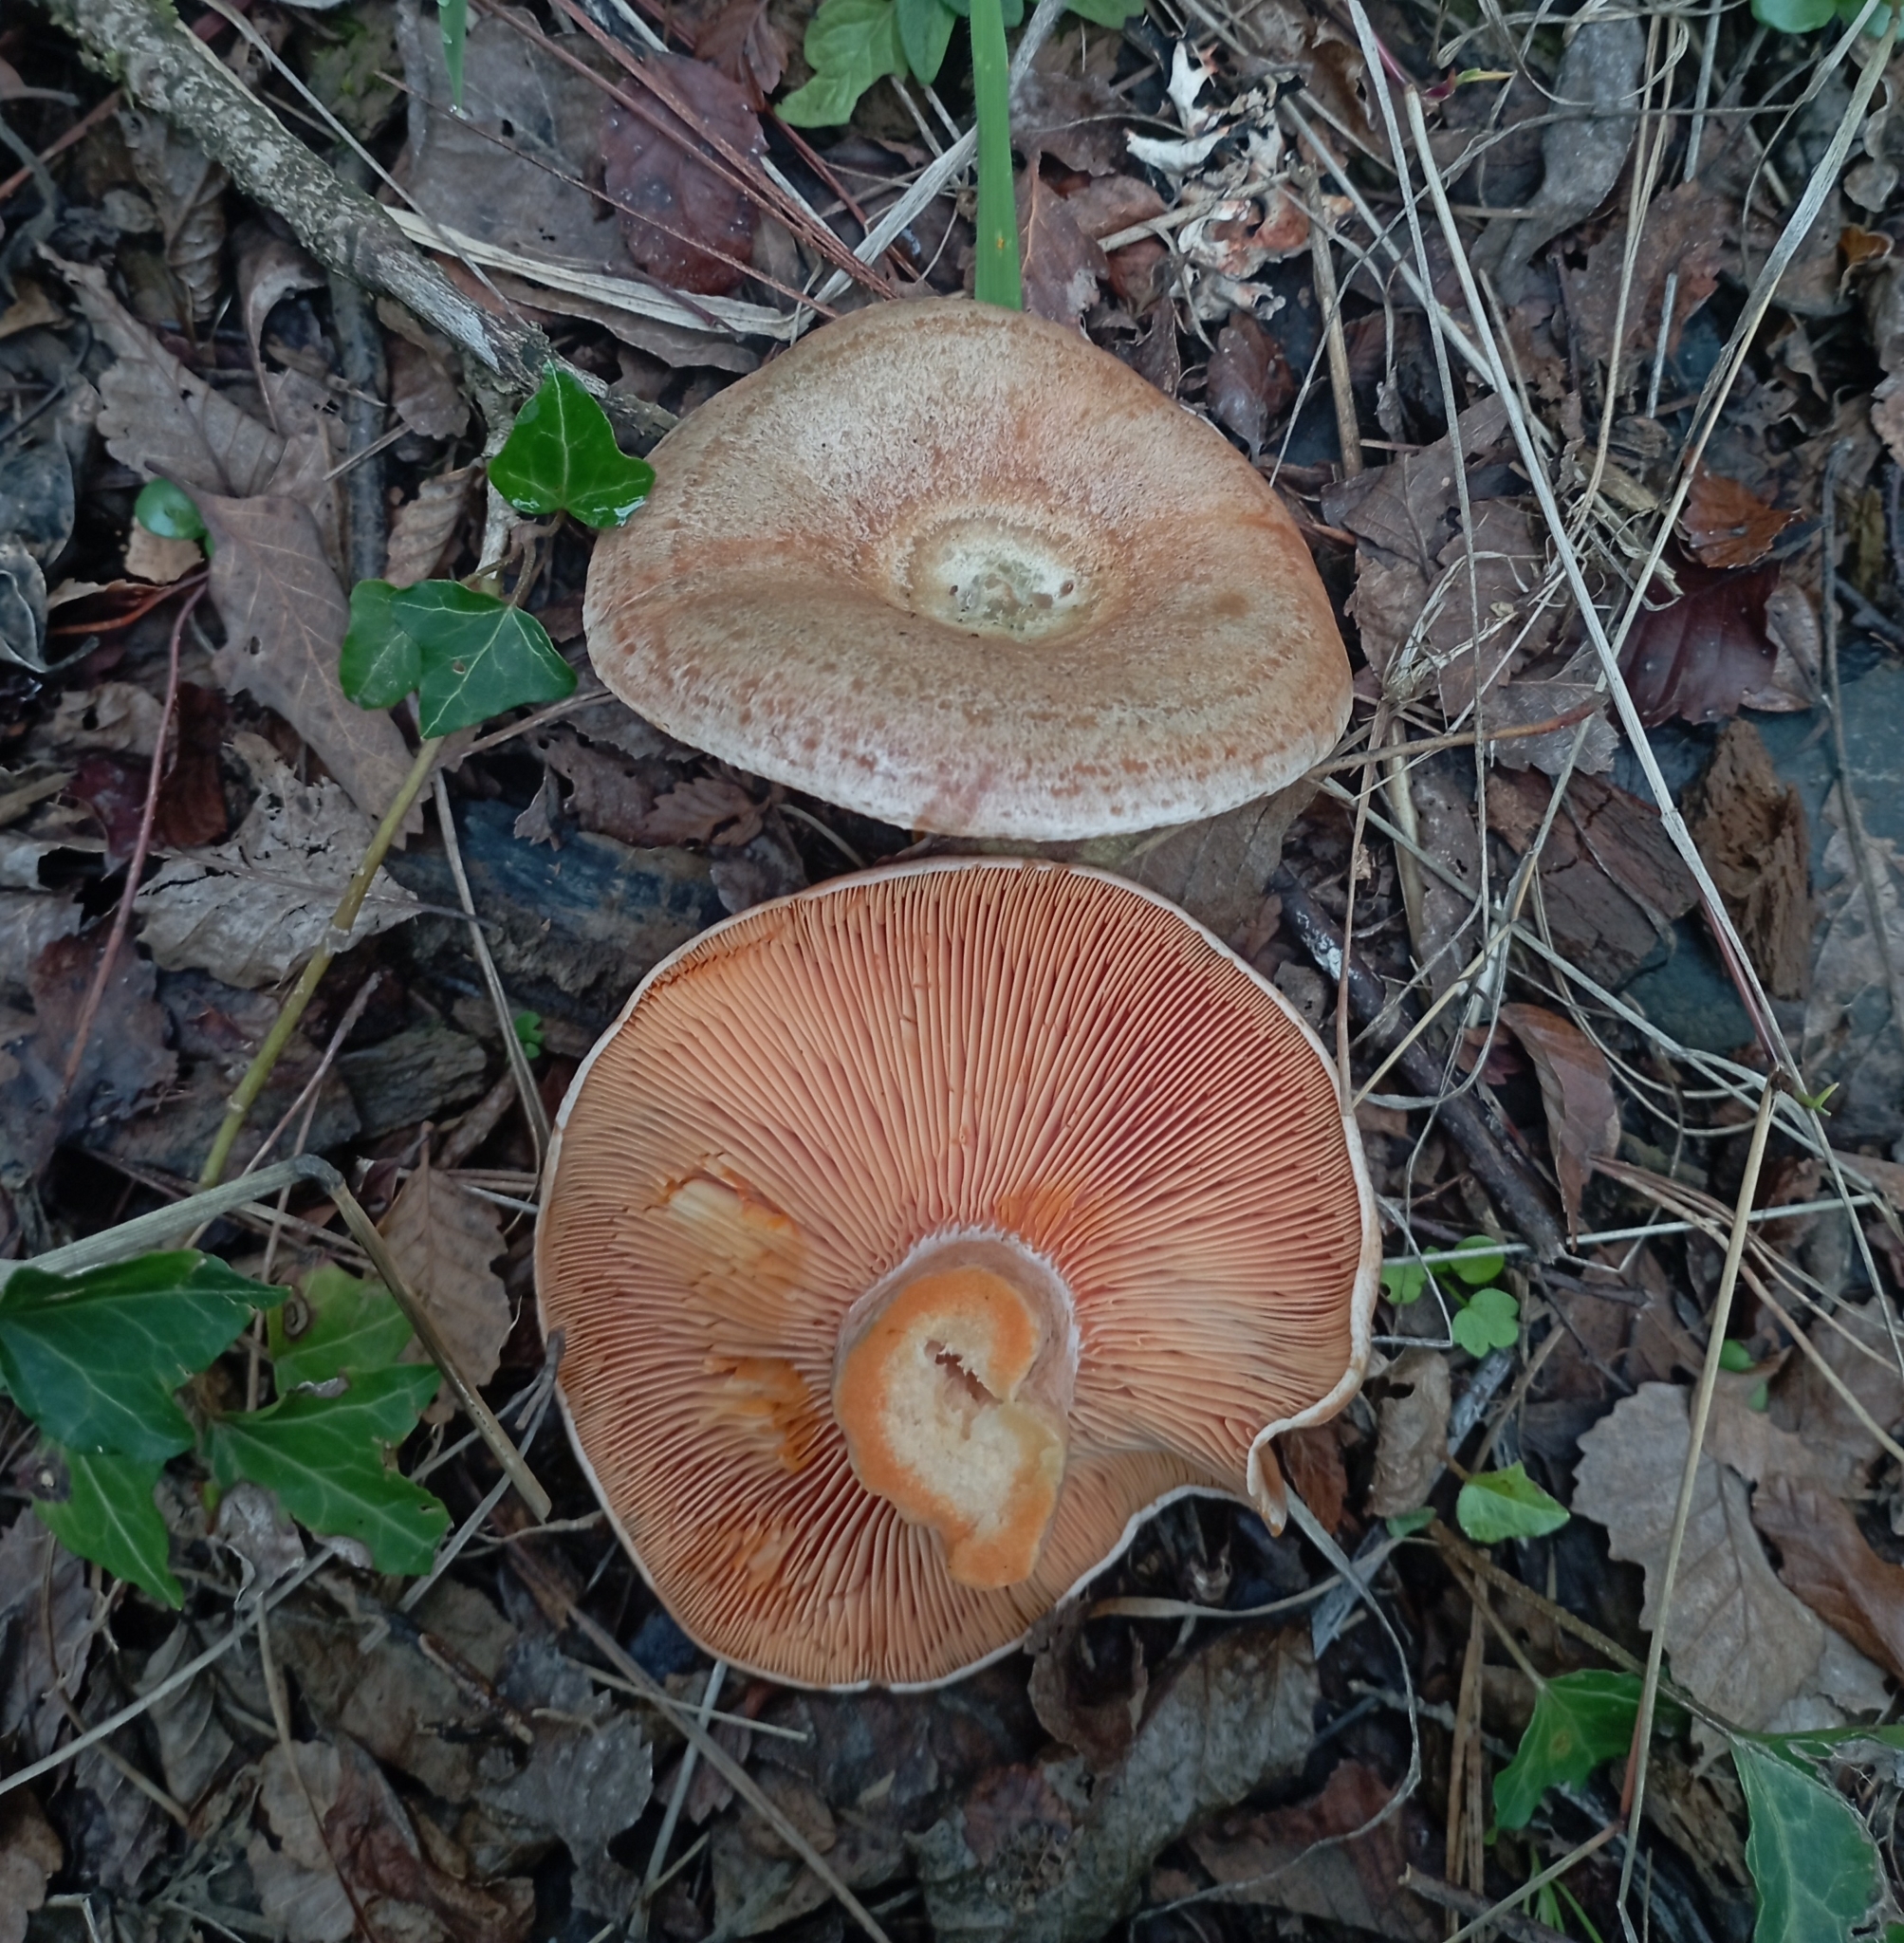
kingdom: Fungi
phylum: Basidiomycota
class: Agaricomycetes
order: Russulales
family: Russulaceae
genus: Lactarius
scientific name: Lactarius quieticolor
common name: Carrot milkcap
